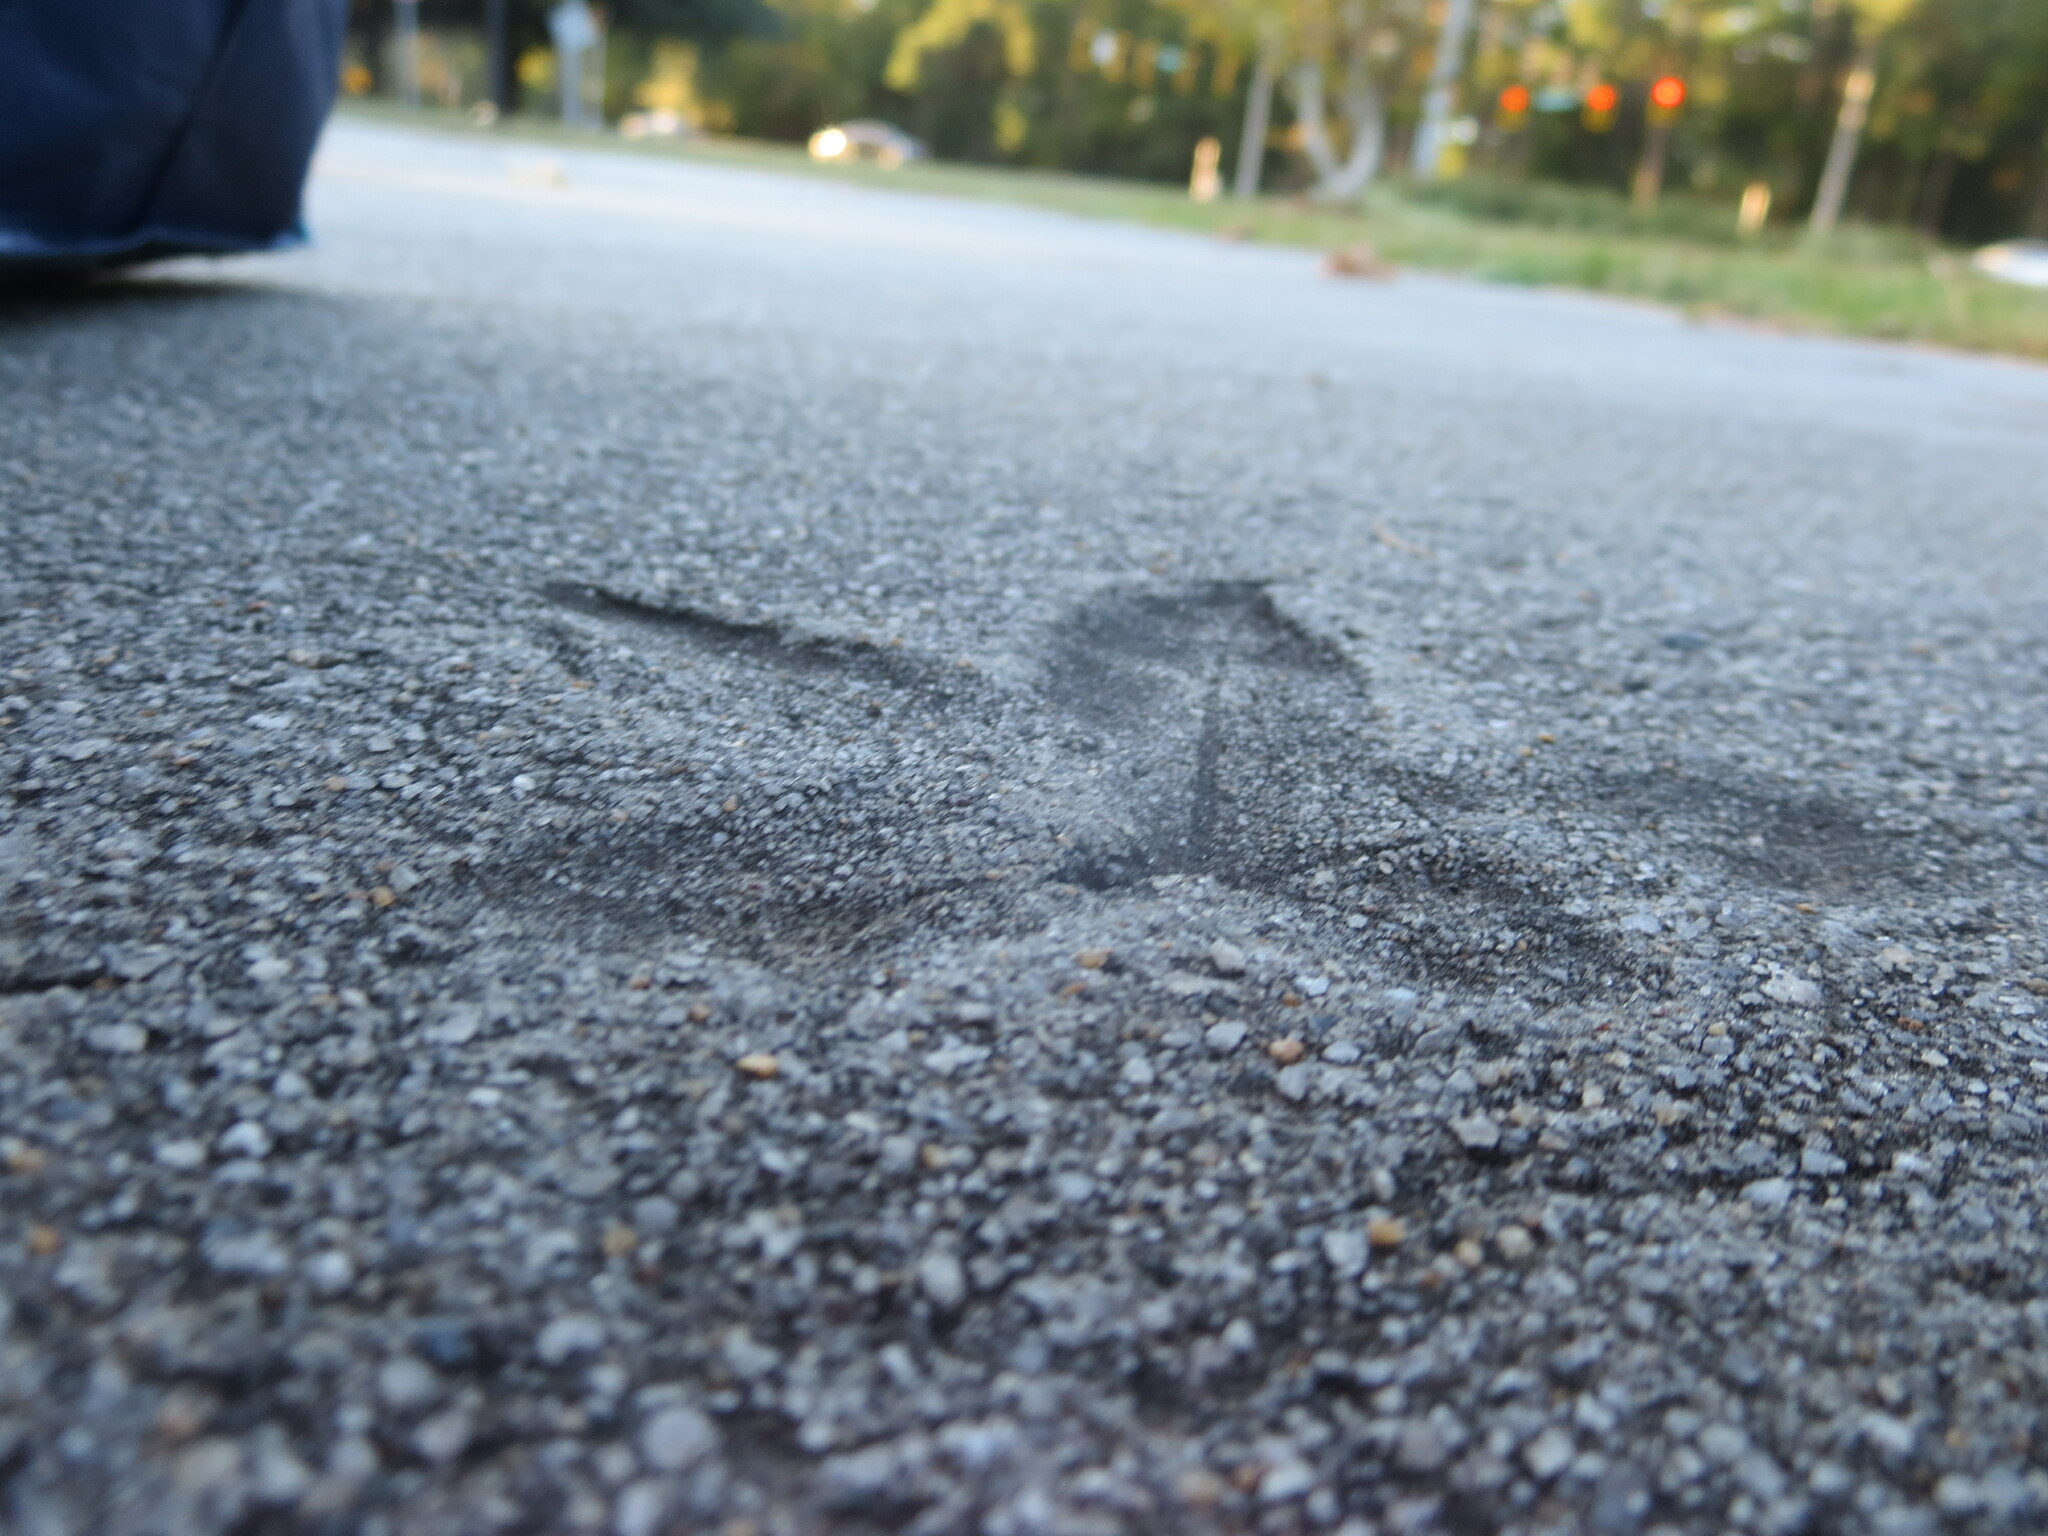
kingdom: Plantae
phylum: Tracheophyta
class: Magnoliopsida
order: Saxifragales
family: Altingiaceae
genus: Liquidambar
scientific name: Liquidambar styraciflua
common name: Sweet gum
